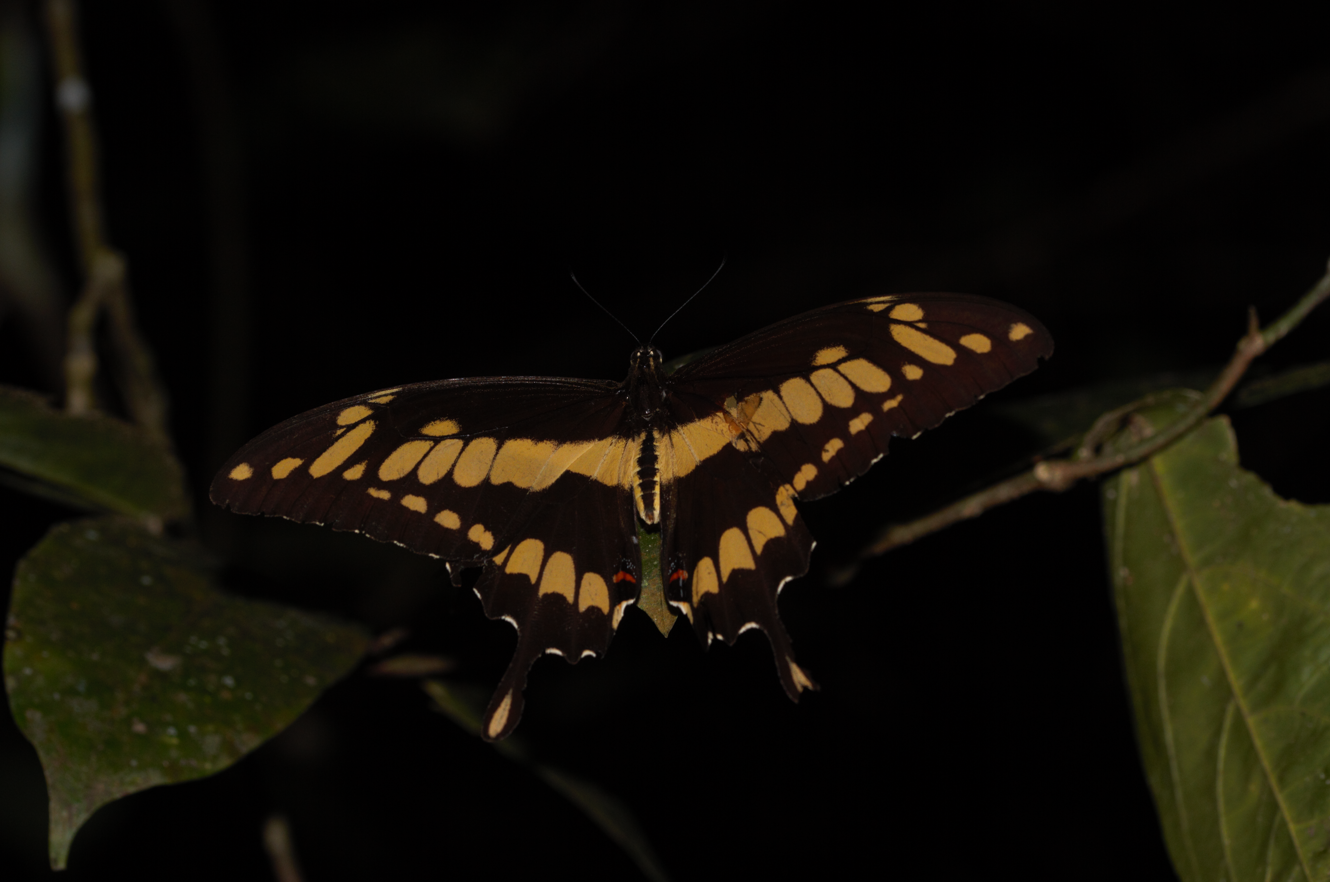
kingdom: Animalia
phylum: Arthropoda
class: Insecta
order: Lepidoptera
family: Papilionidae
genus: Papilio
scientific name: Papilio thoas
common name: King swallowtail
